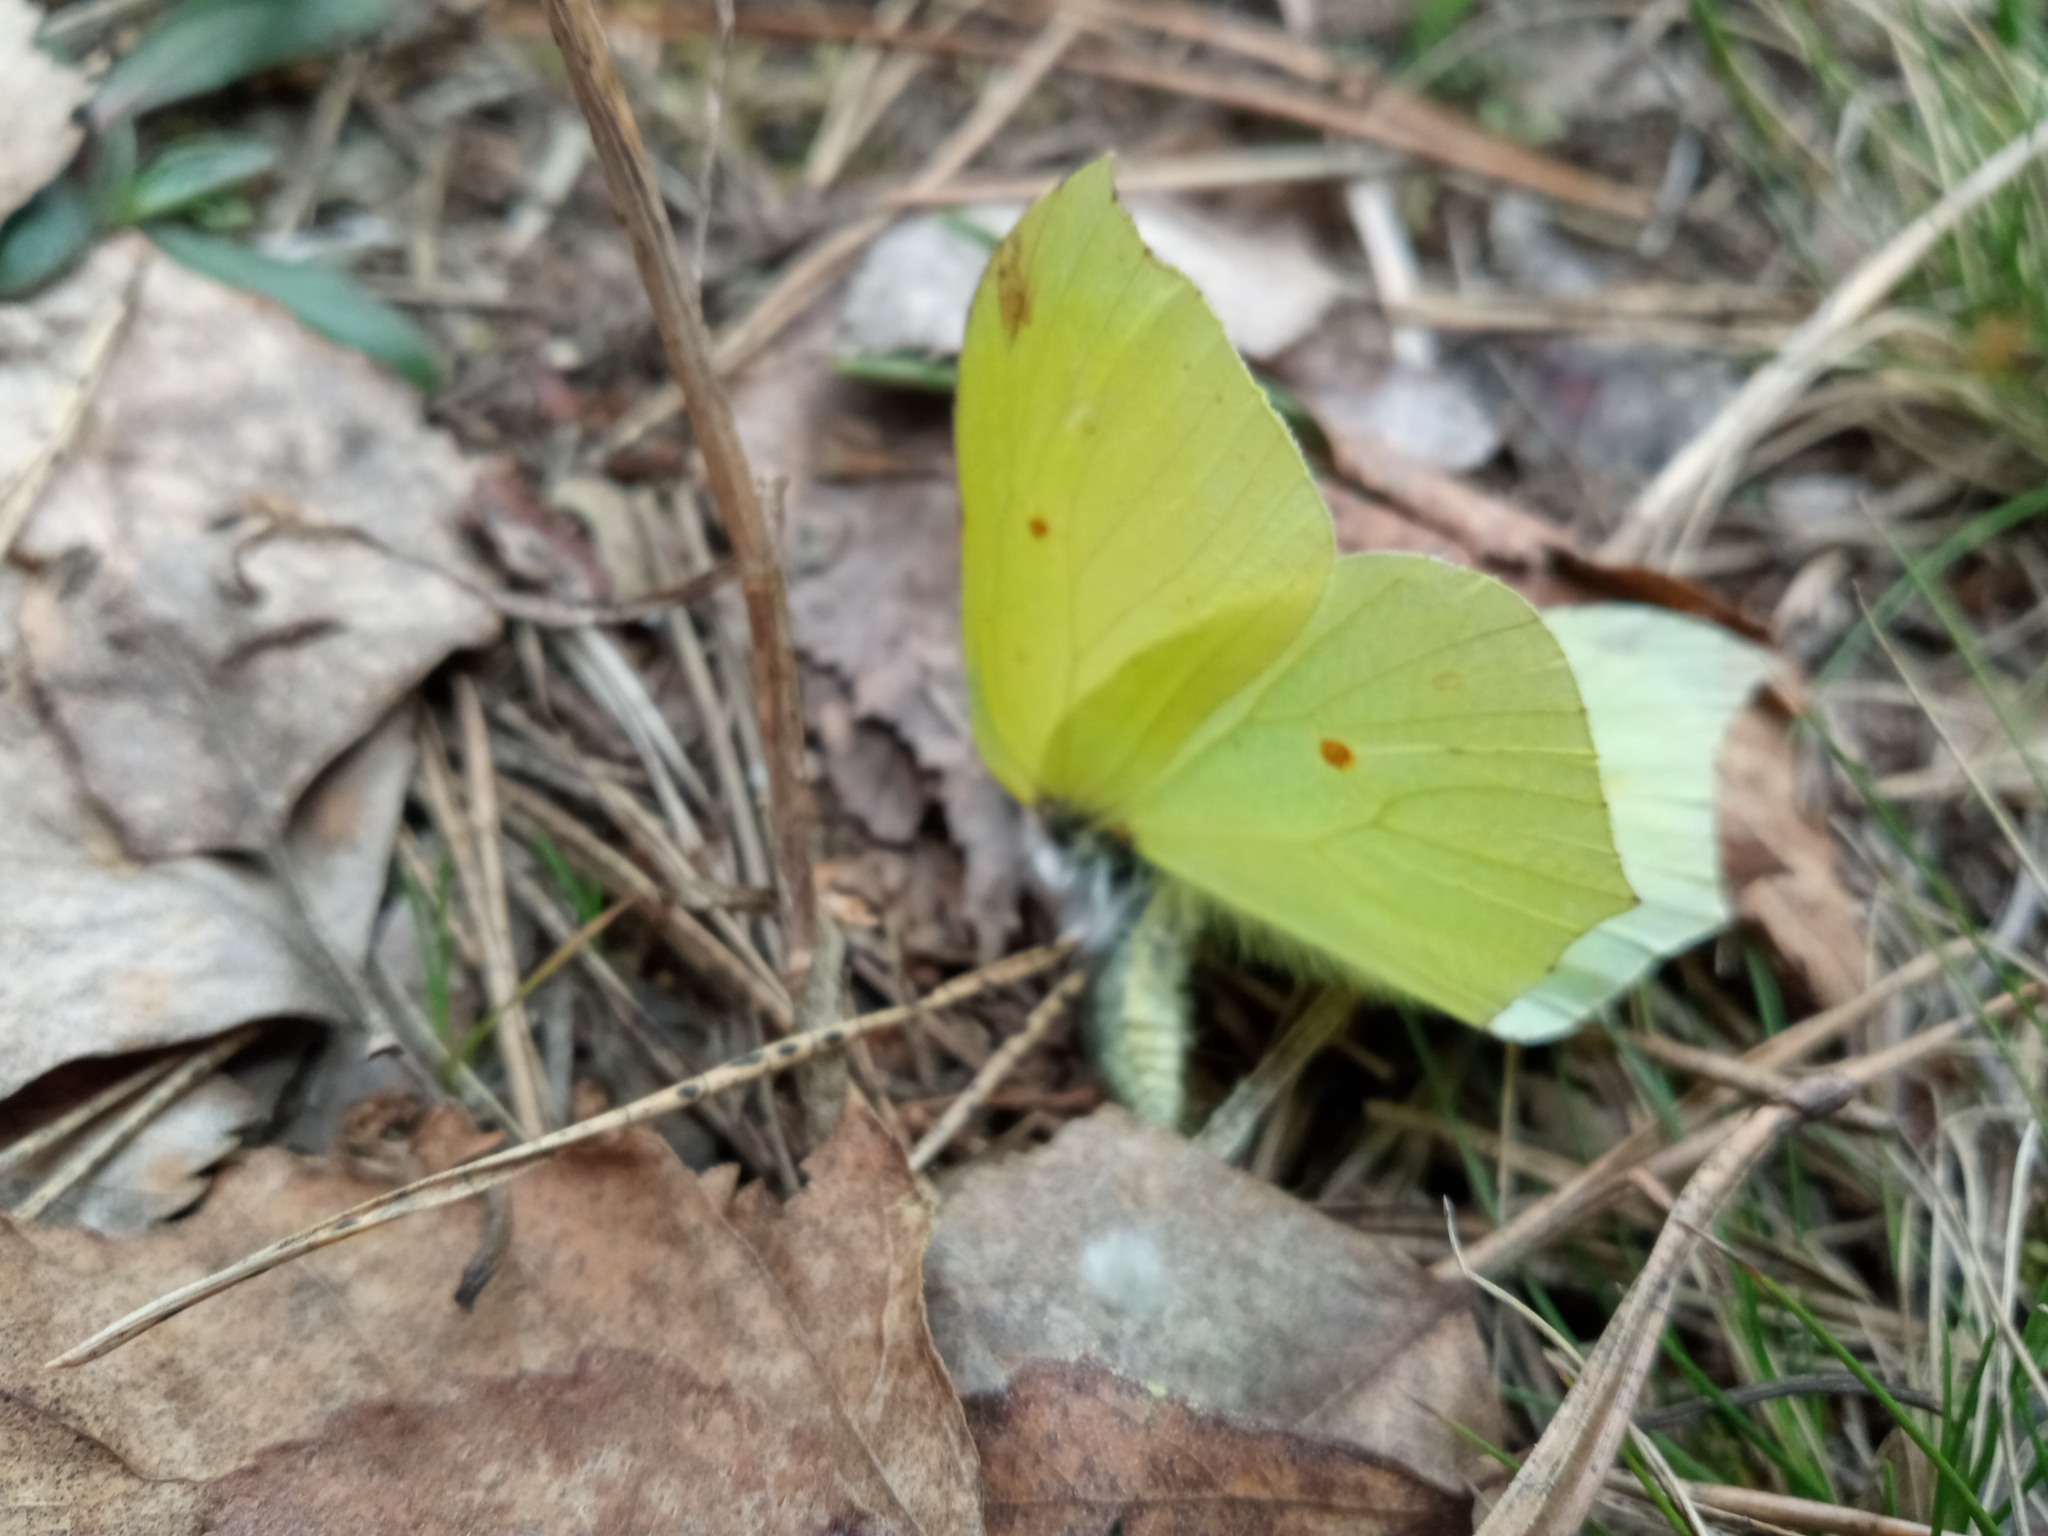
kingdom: Animalia
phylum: Arthropoda
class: Insecta
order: Lepidoptera
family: Pieridae
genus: Gonepteryx
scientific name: Gonepteryx rhamni
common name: Brimstone
